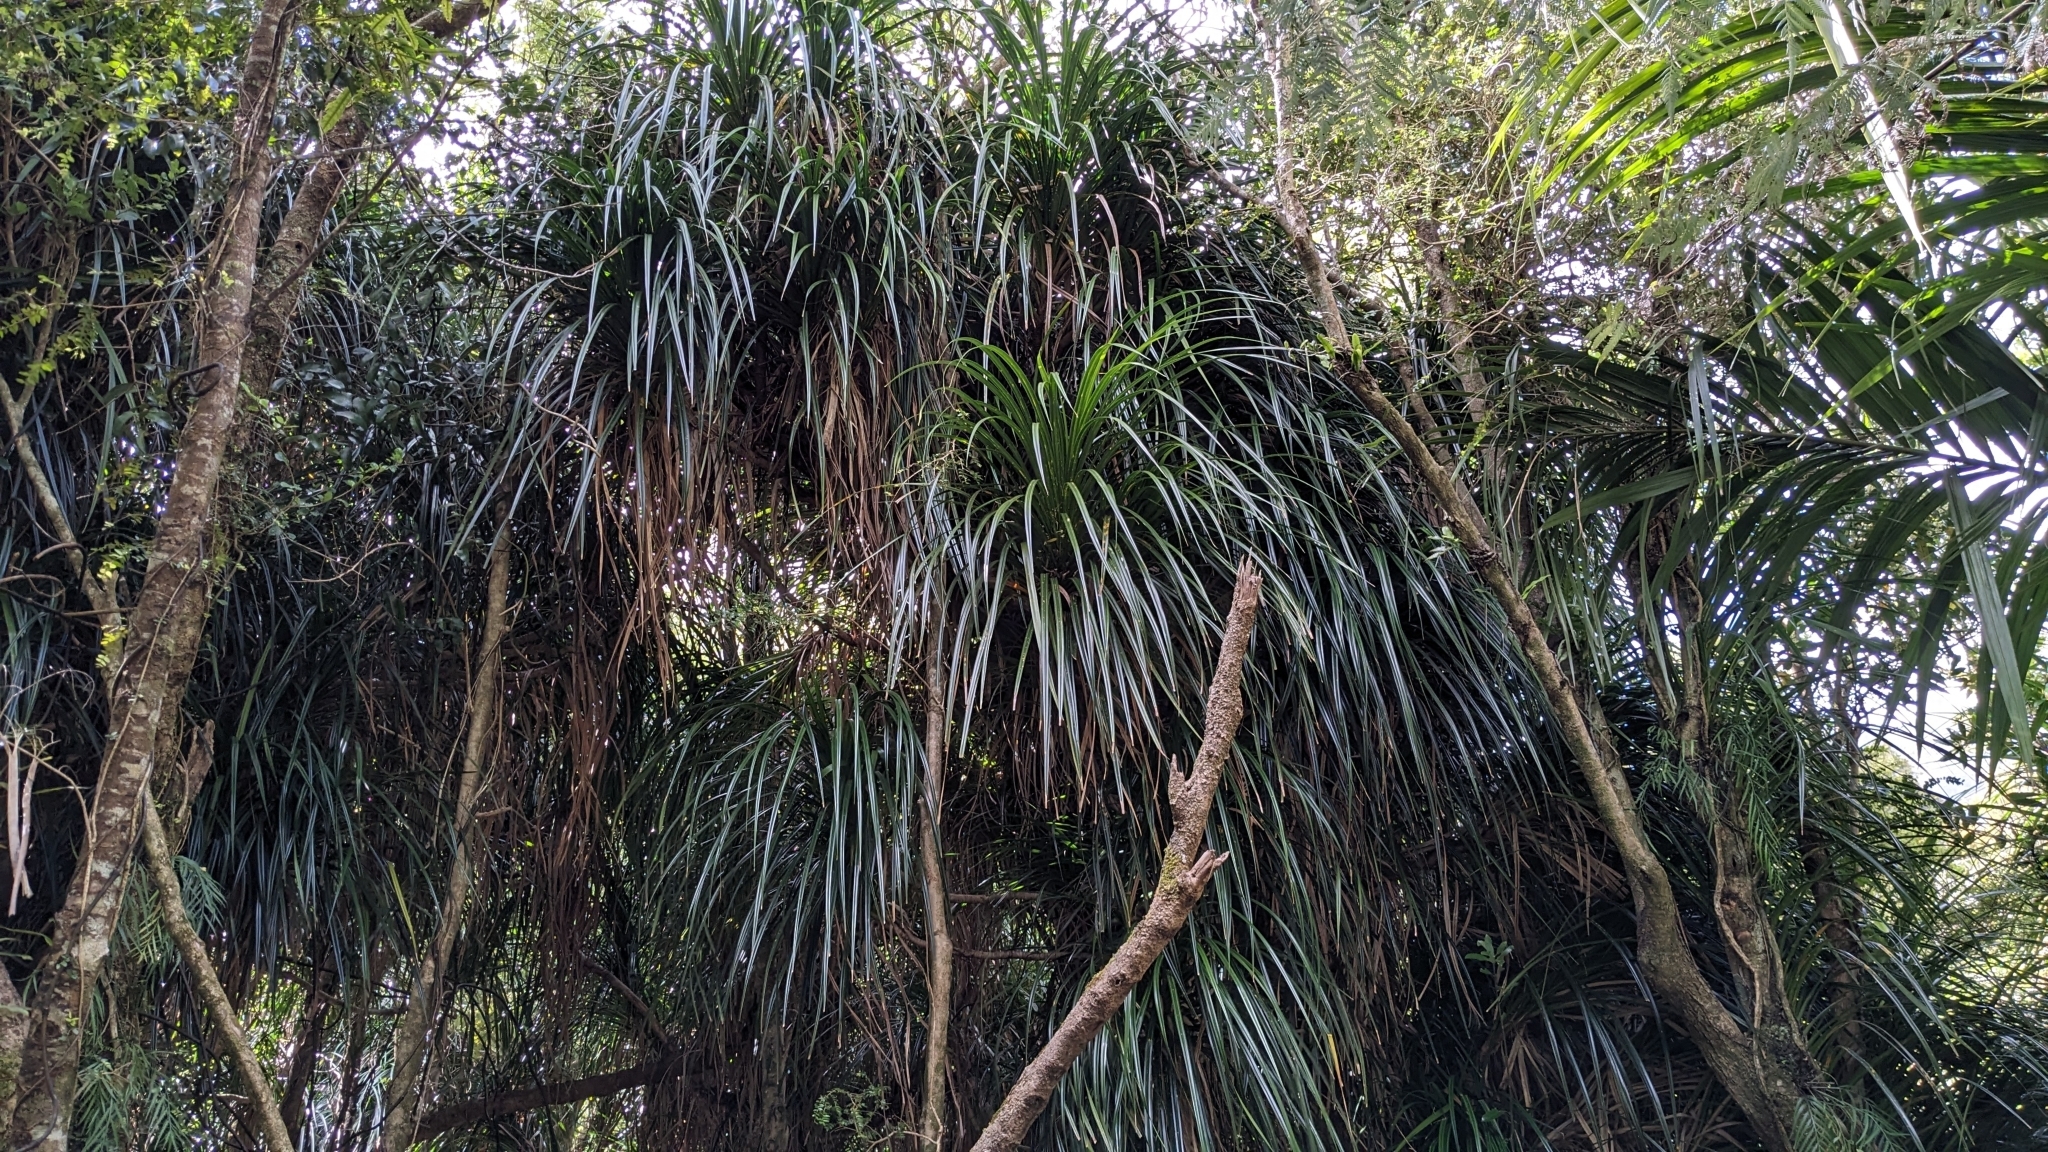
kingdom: Plantae
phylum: Tracheophyta
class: Liliopsida
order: Pandanales
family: Pandanaceae
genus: Freycinetia
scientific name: Freycinetia banksii
